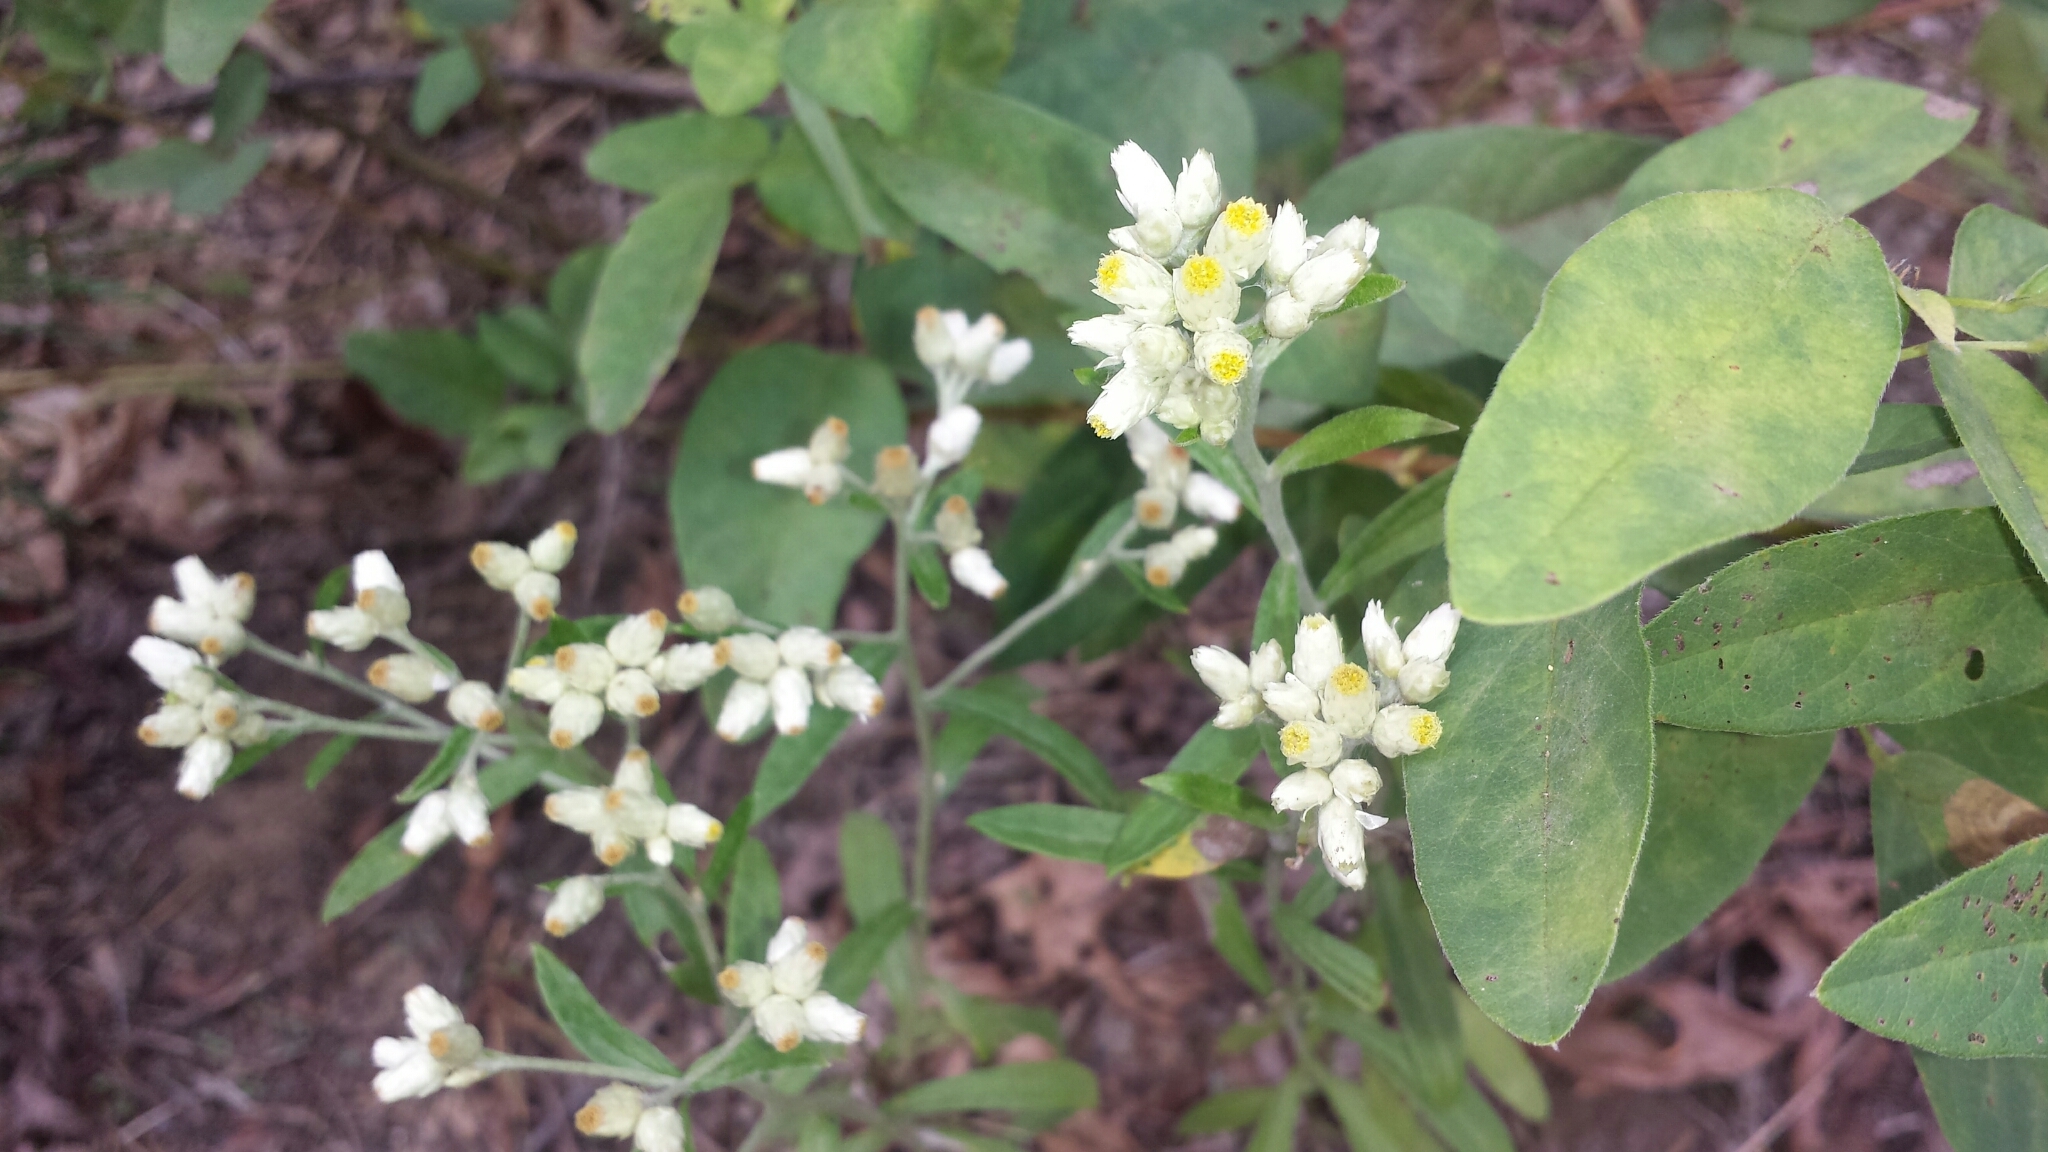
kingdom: Plantae
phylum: Tracheophyta
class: Magnoliopsida
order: Asterales
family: Asteraceae
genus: Pseudognaphalium
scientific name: Pseudognaphalium obtusifolium
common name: Eastern rabbit-tobacco
